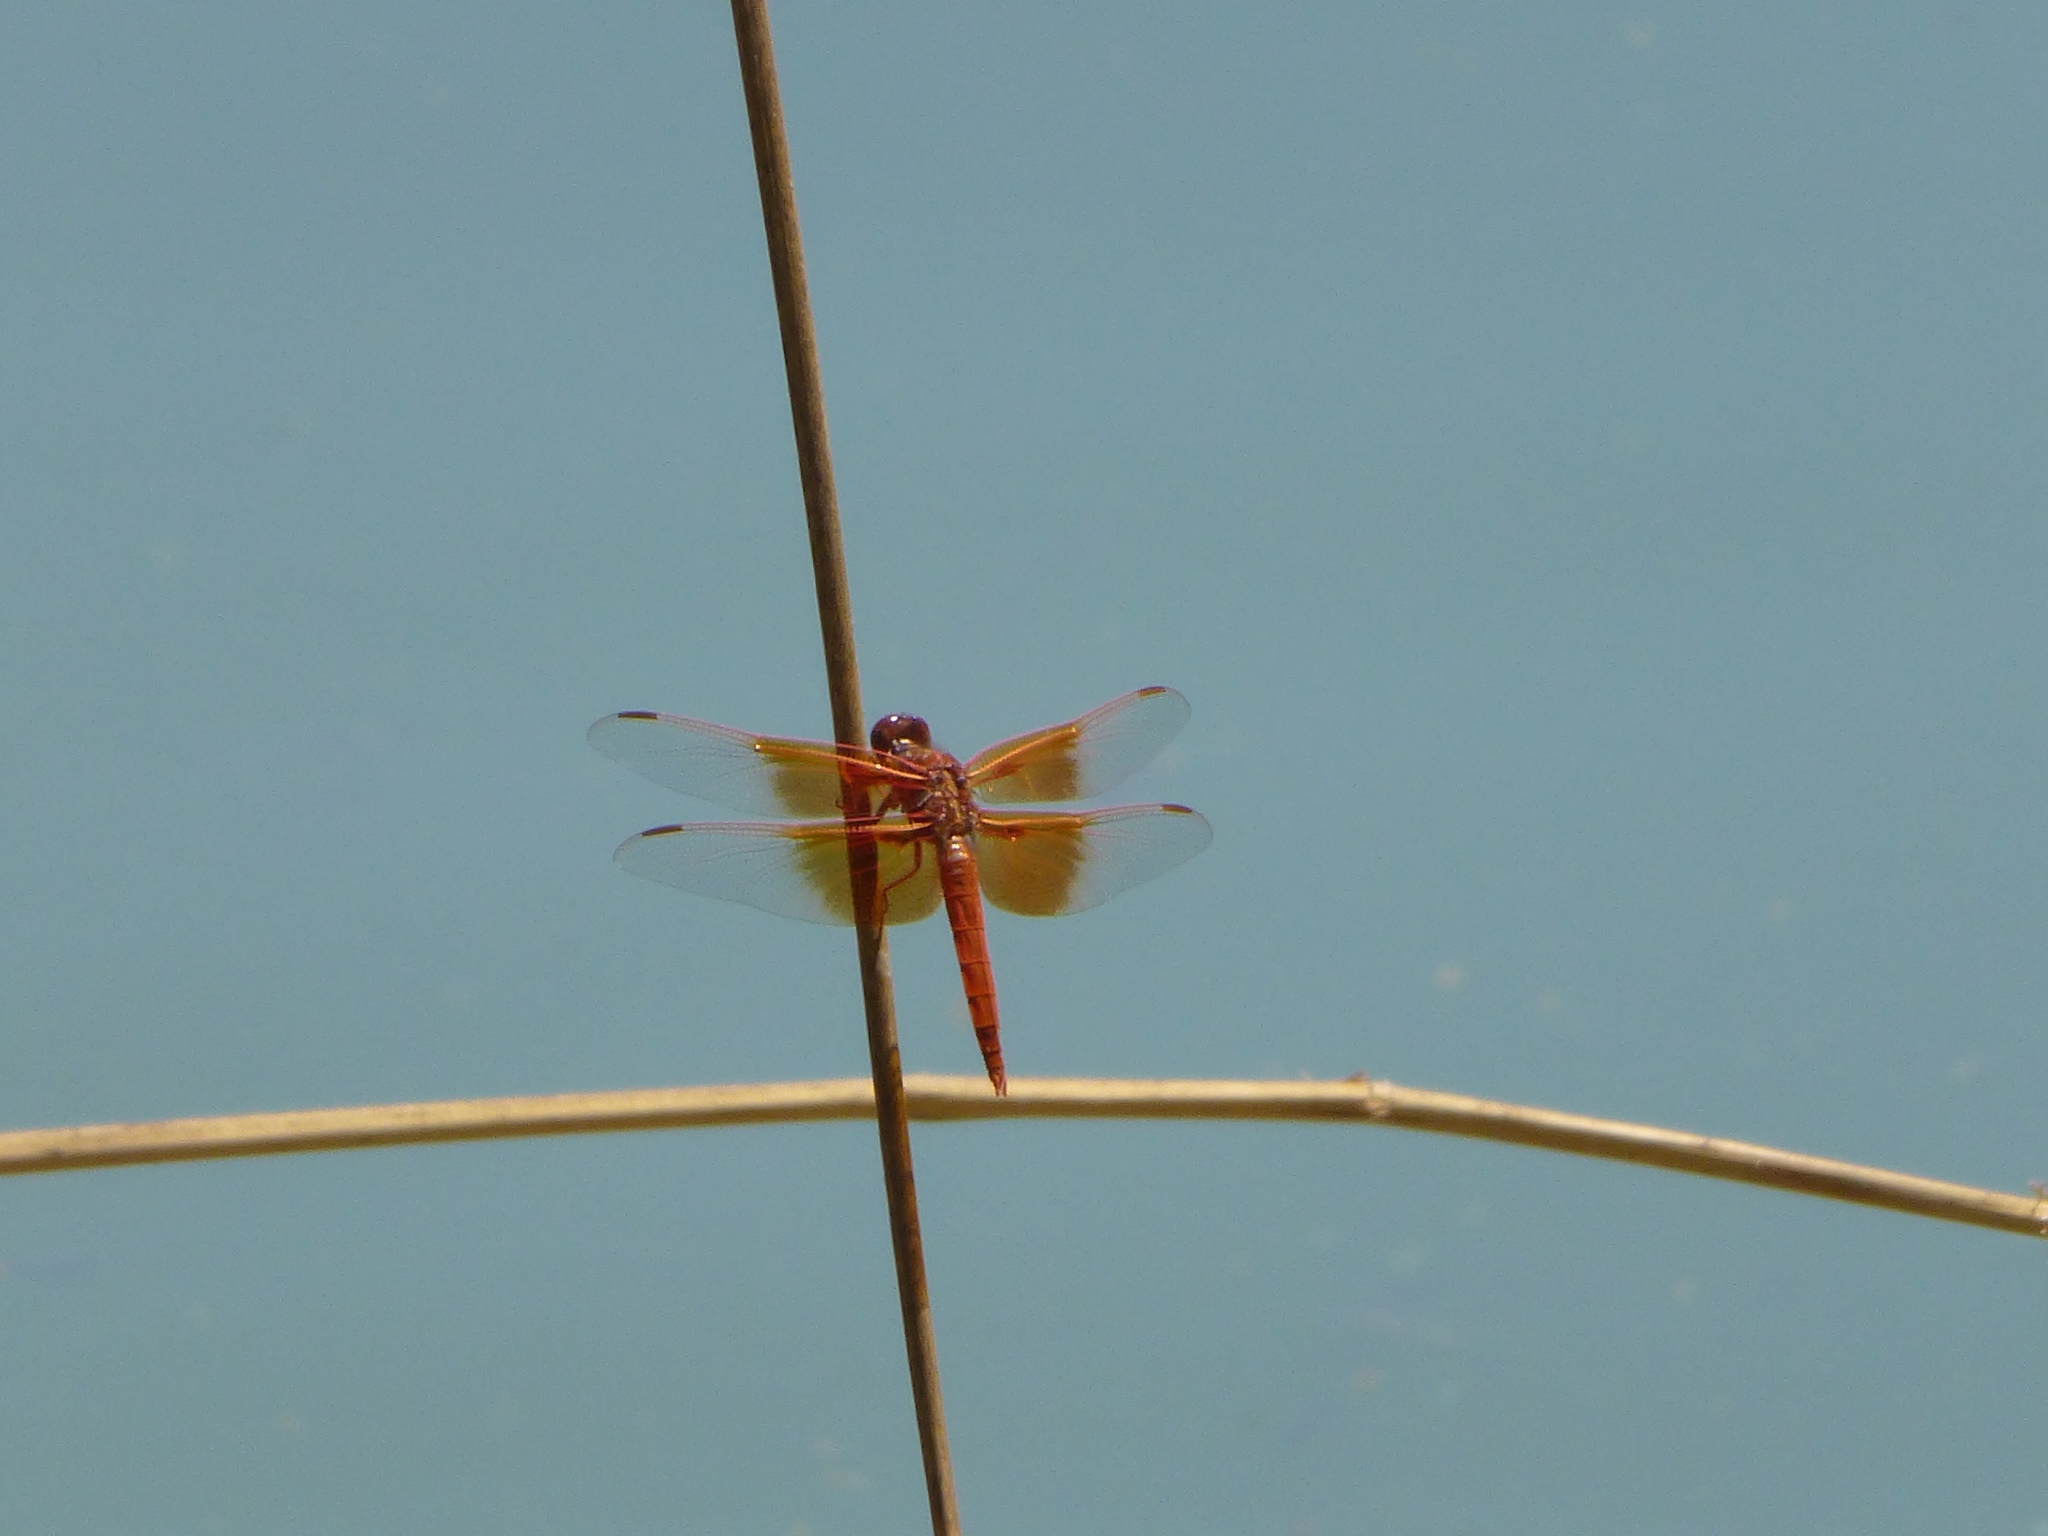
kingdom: Animalia
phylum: Arthropoda
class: Insecta
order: Odonata
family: Libellulidae
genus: Libellula
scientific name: Libellula saturata
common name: Flame skimmer
